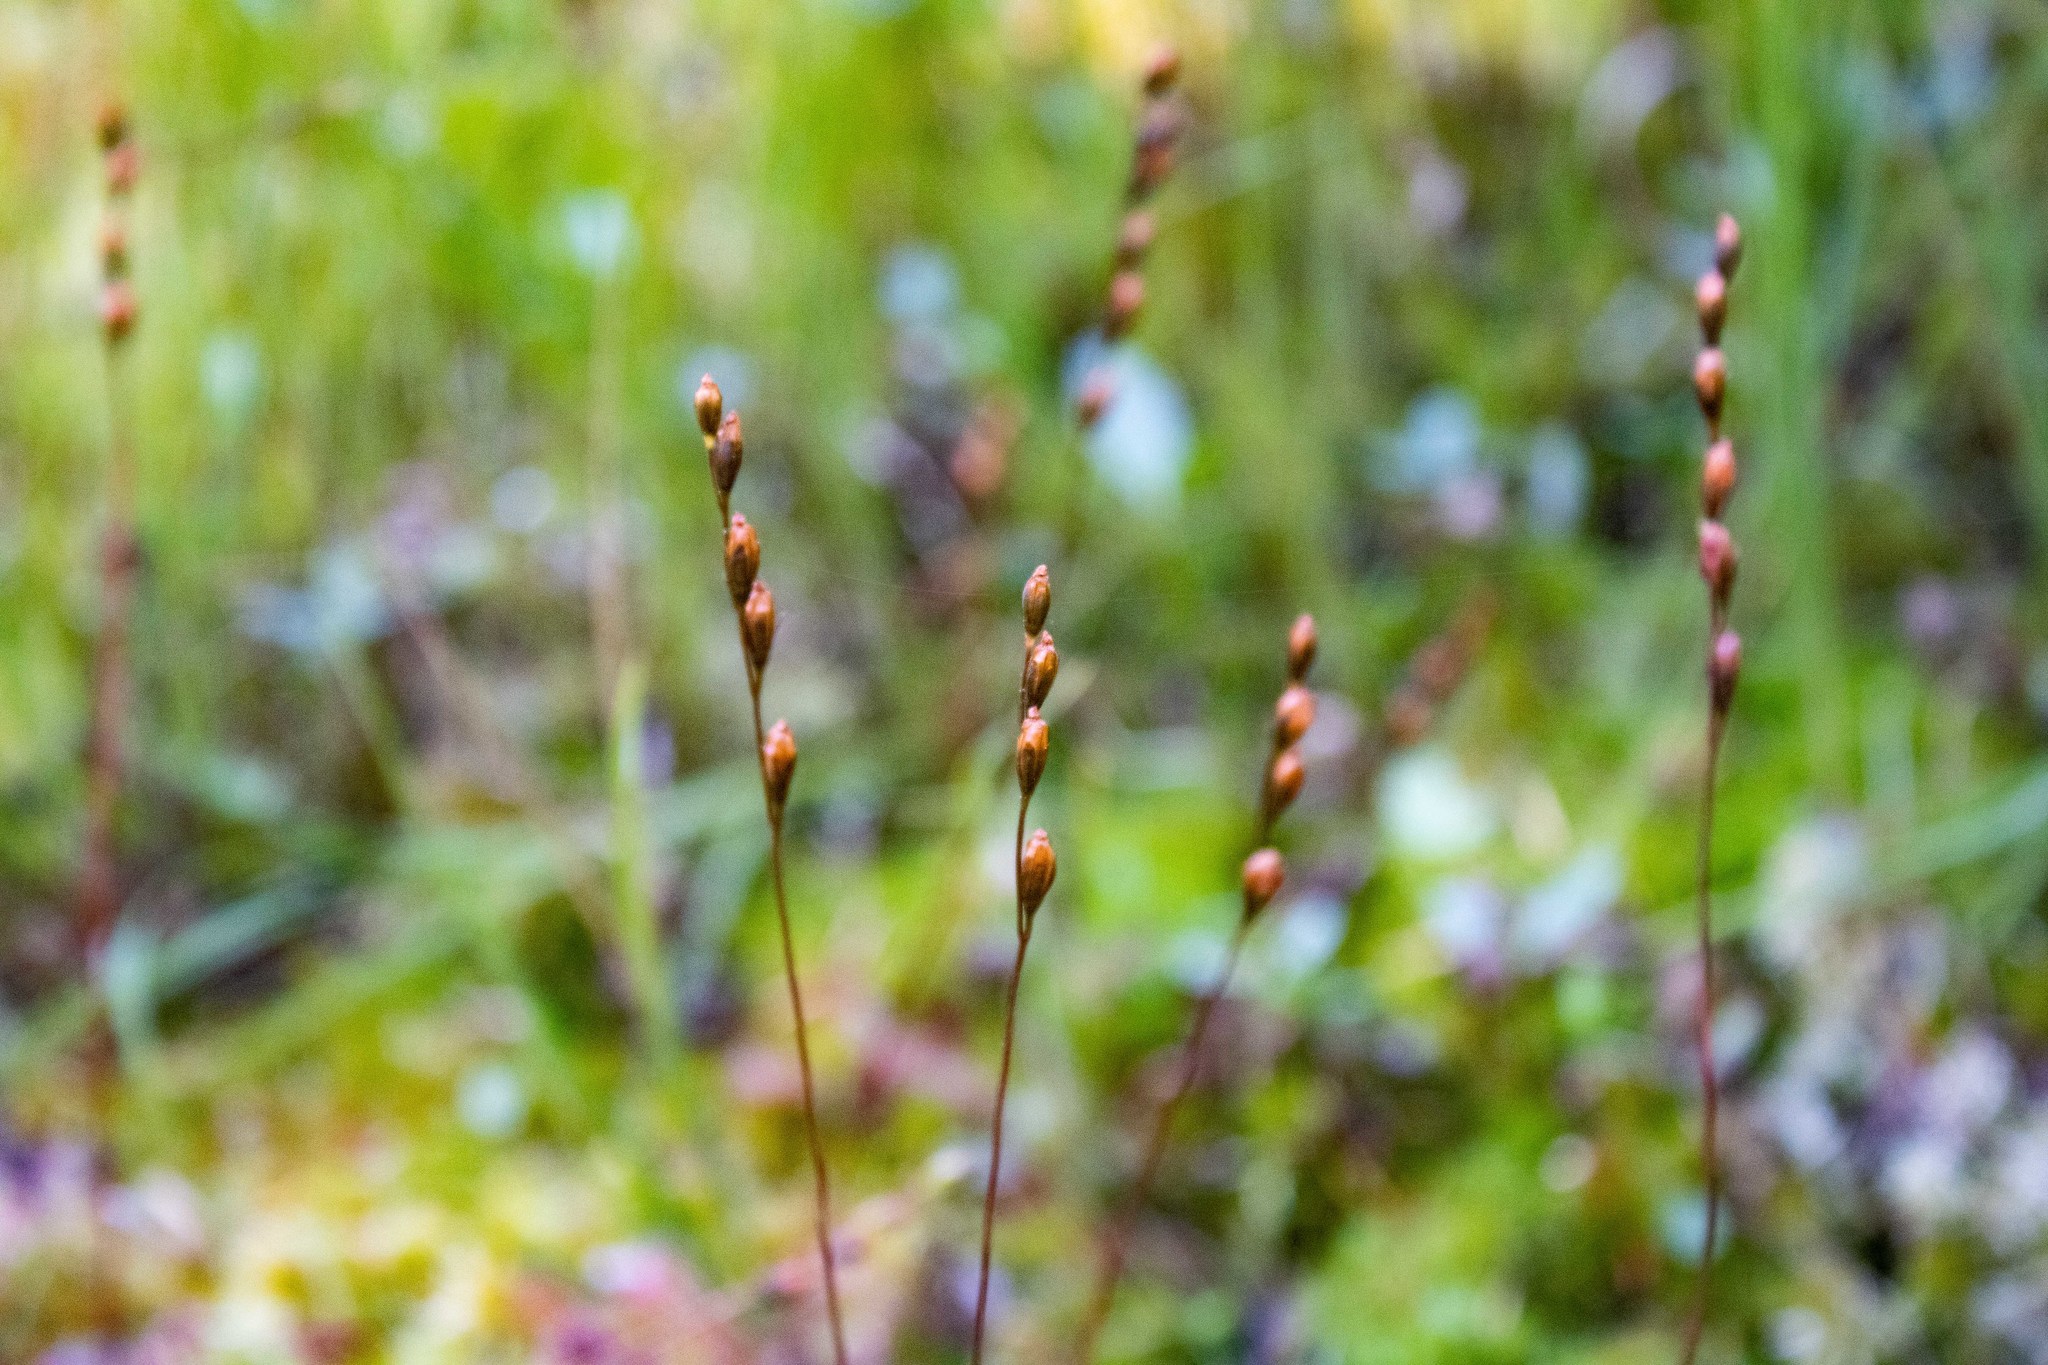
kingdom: Plantae
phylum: Tracheophyta
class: Magnoliopsida
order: Caryophyllales
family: Droseraceae
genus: Drosera
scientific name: Drosera rotundifolia
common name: Round-leaved sundew
